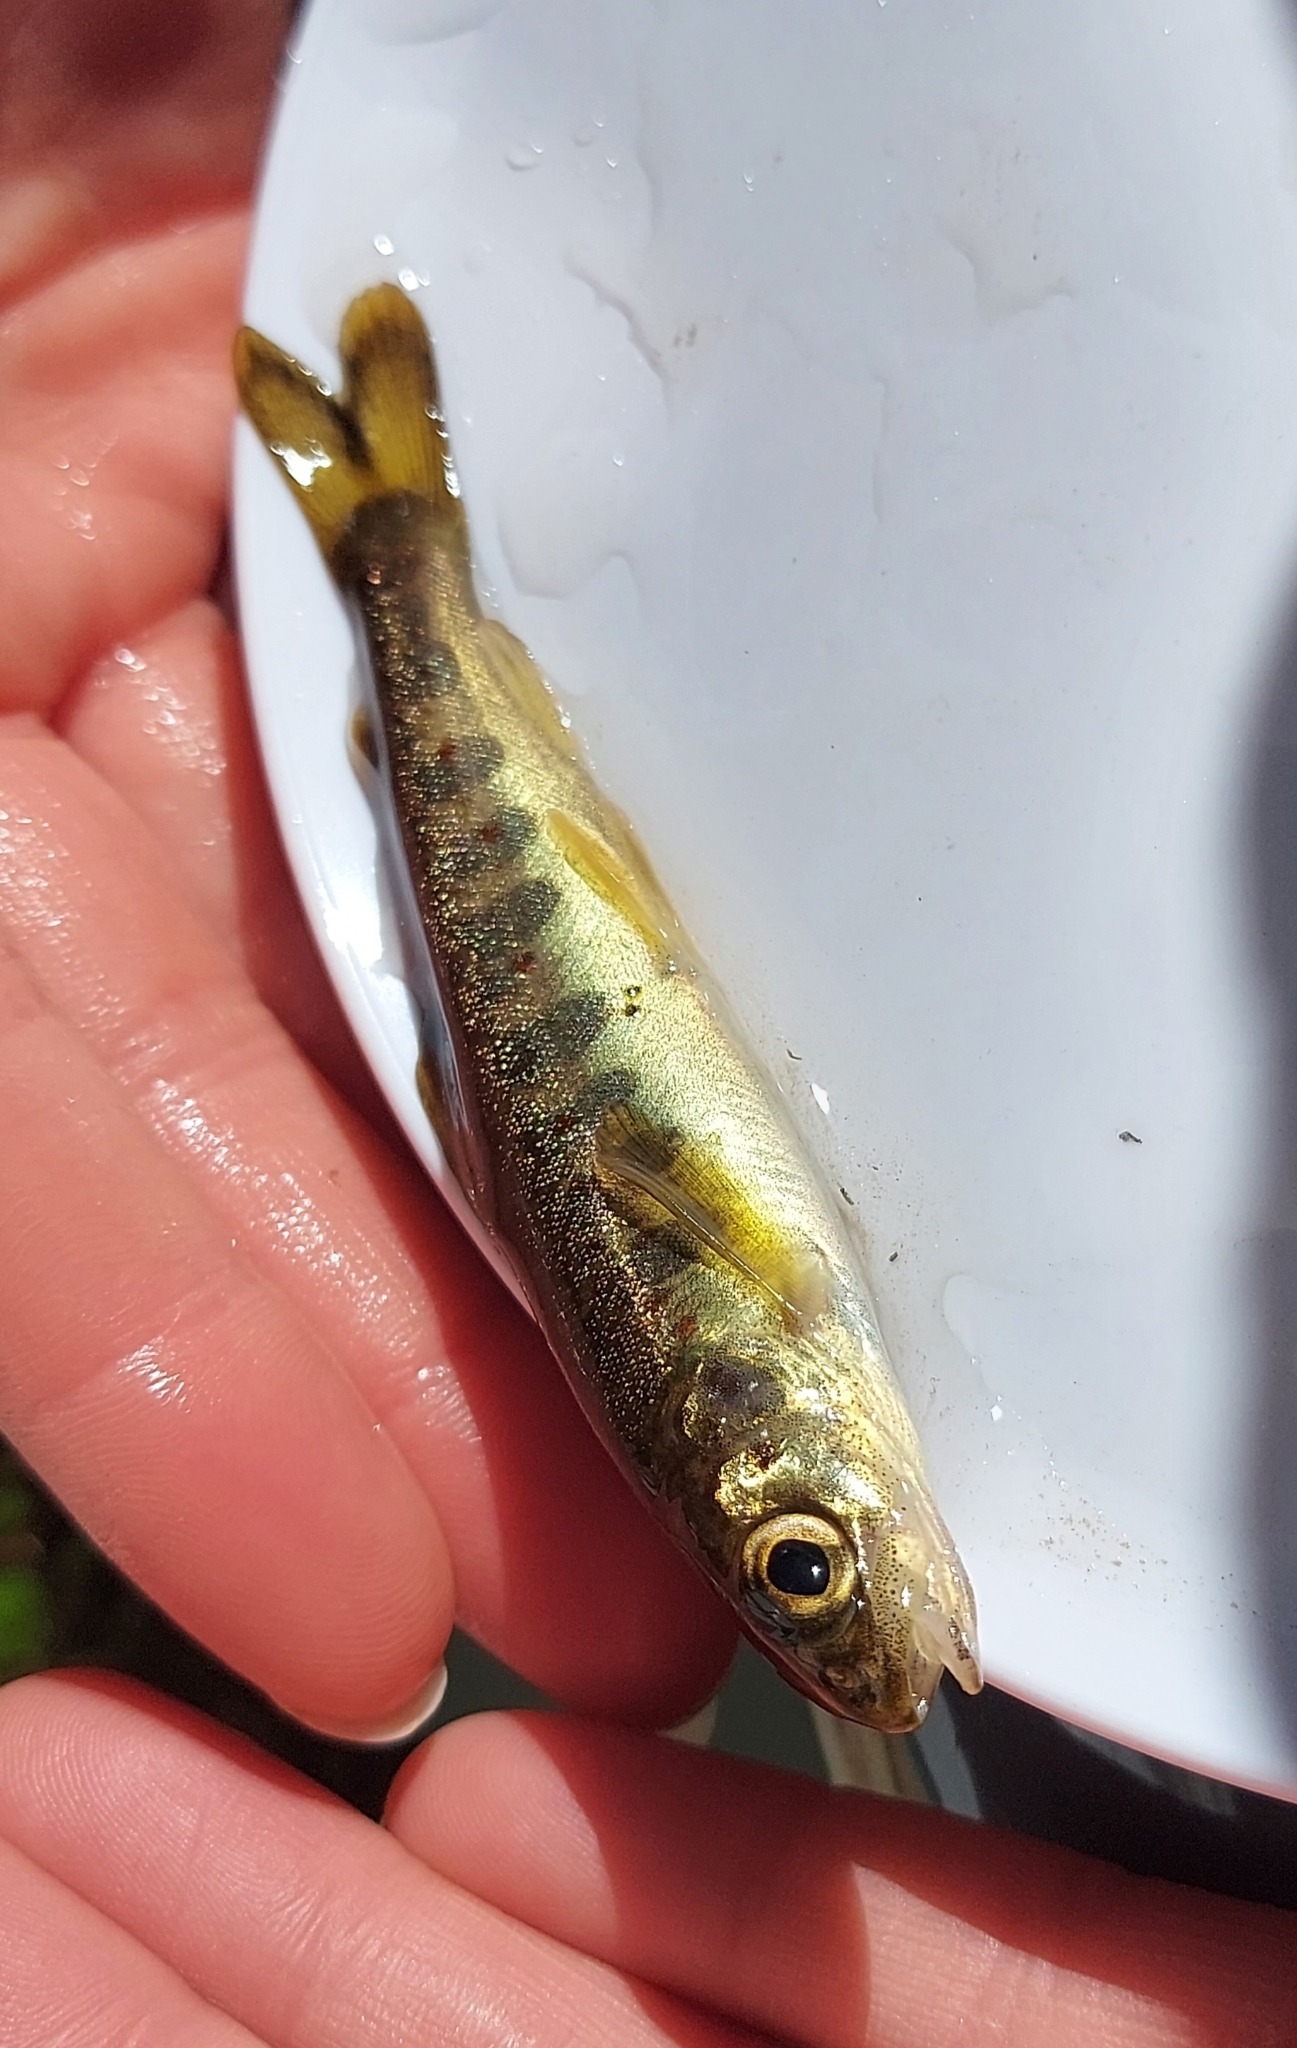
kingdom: Animalia
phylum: Chordata
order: Salmoniformes
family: Salmonidae
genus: Salmo
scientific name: Salmo salar
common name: Atlantic salmon
